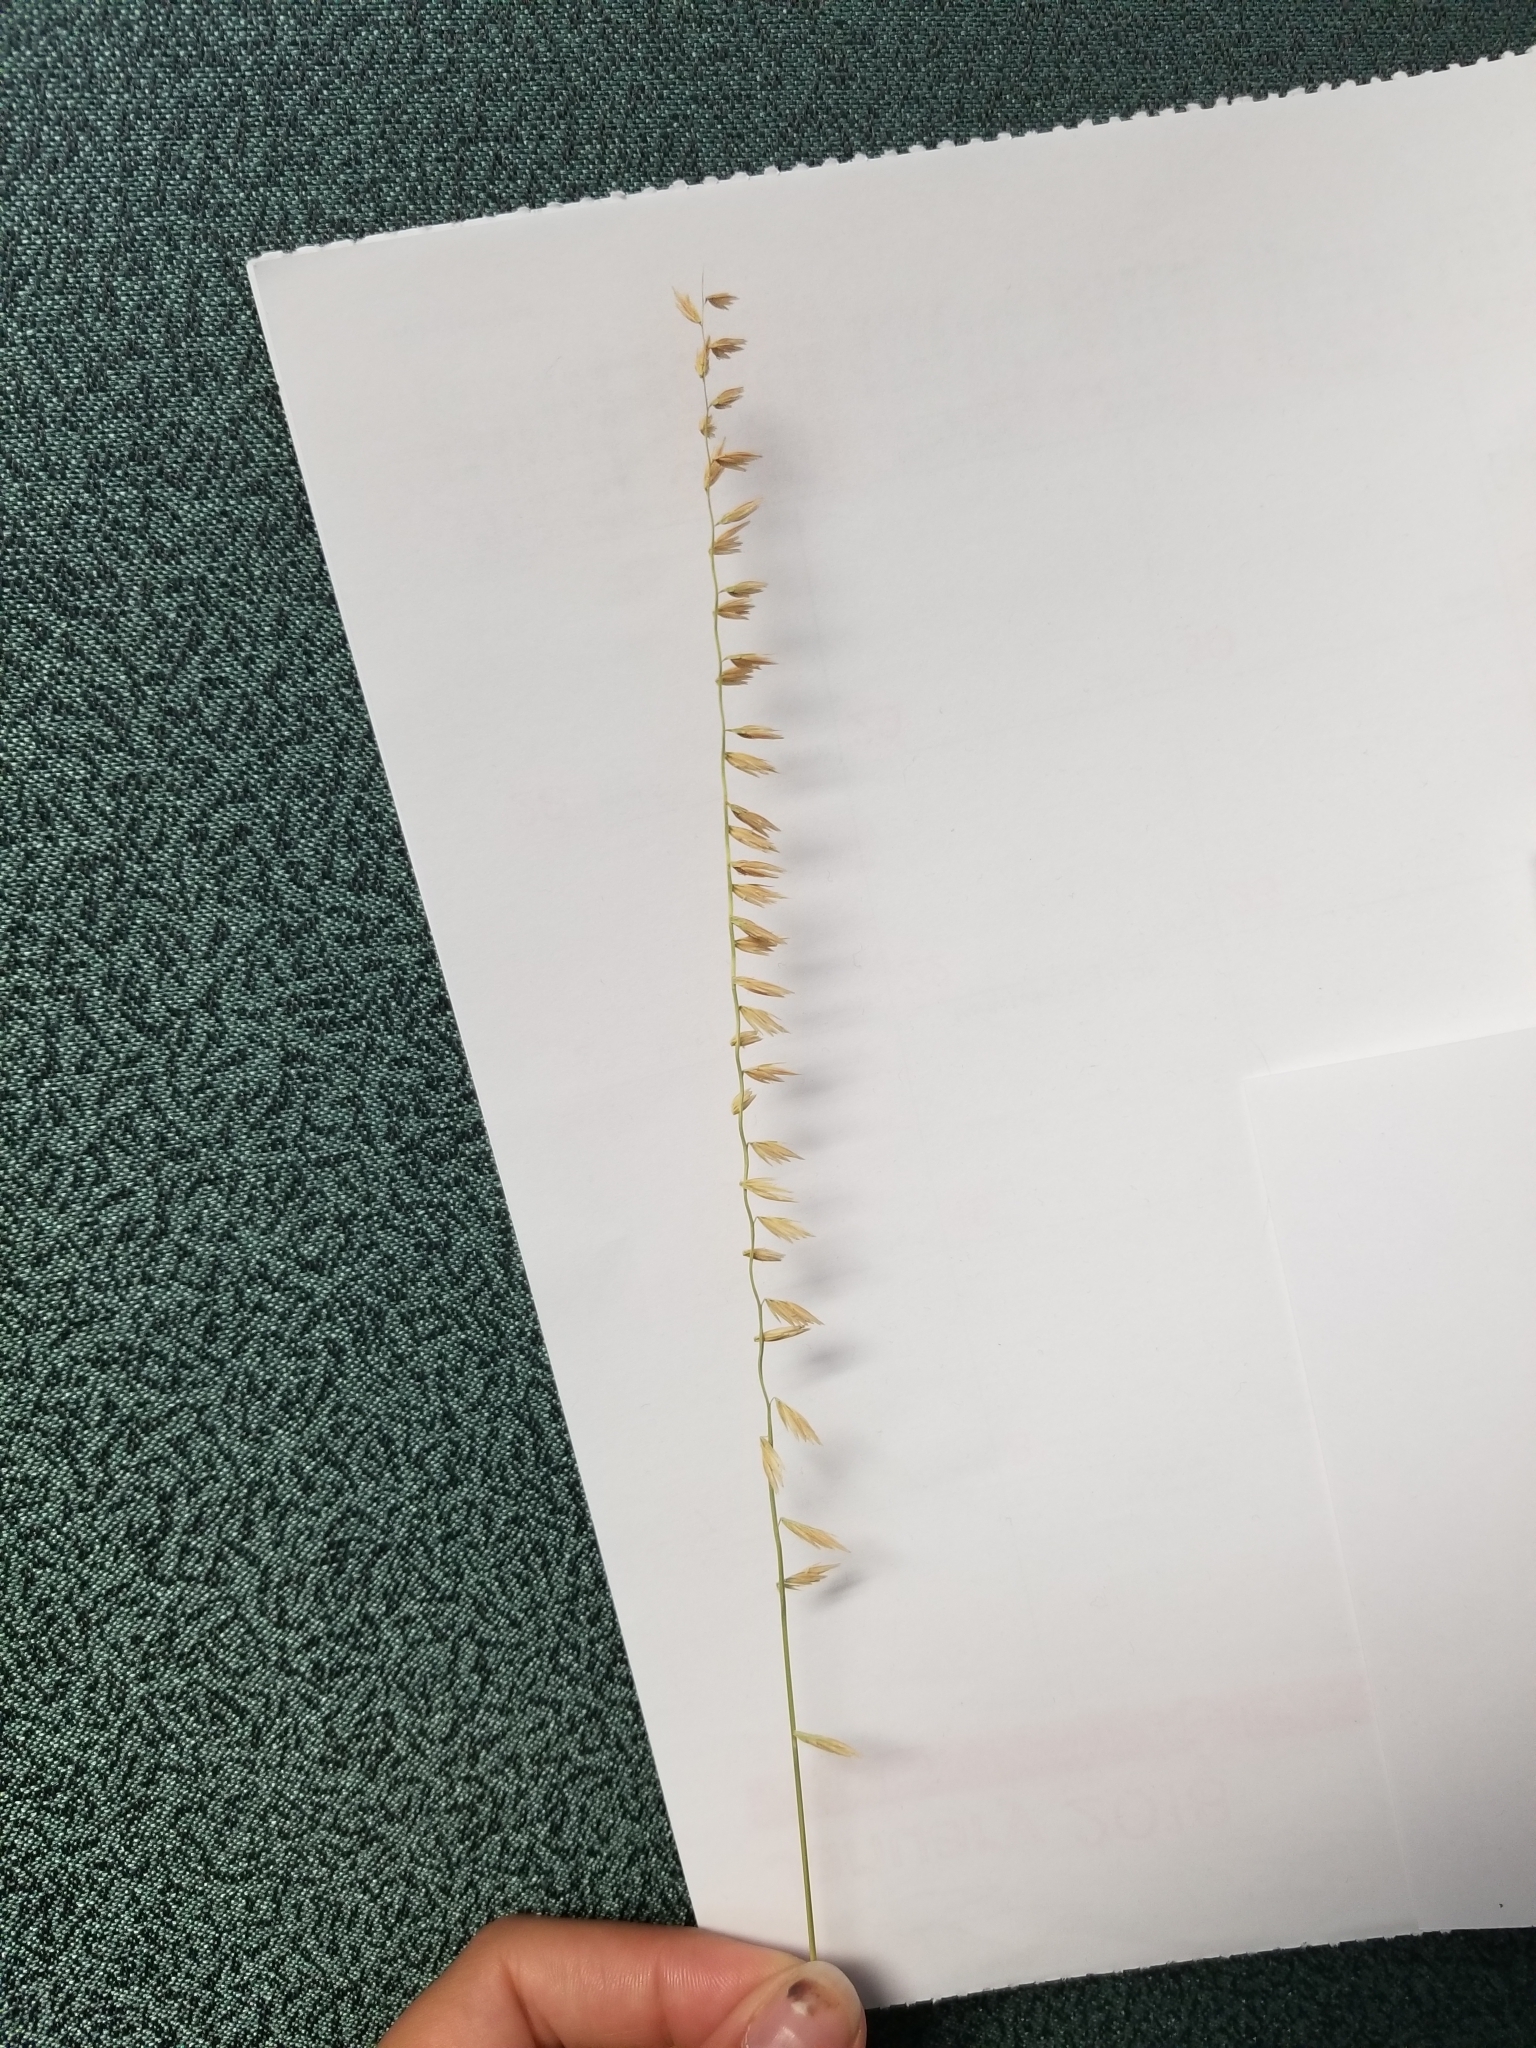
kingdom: Plantae
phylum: Tracheophyta
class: Liliopsida
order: Poales
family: Poaceae
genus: Bouteloua
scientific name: Bouteloua curtipendula
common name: Side-oats grama
